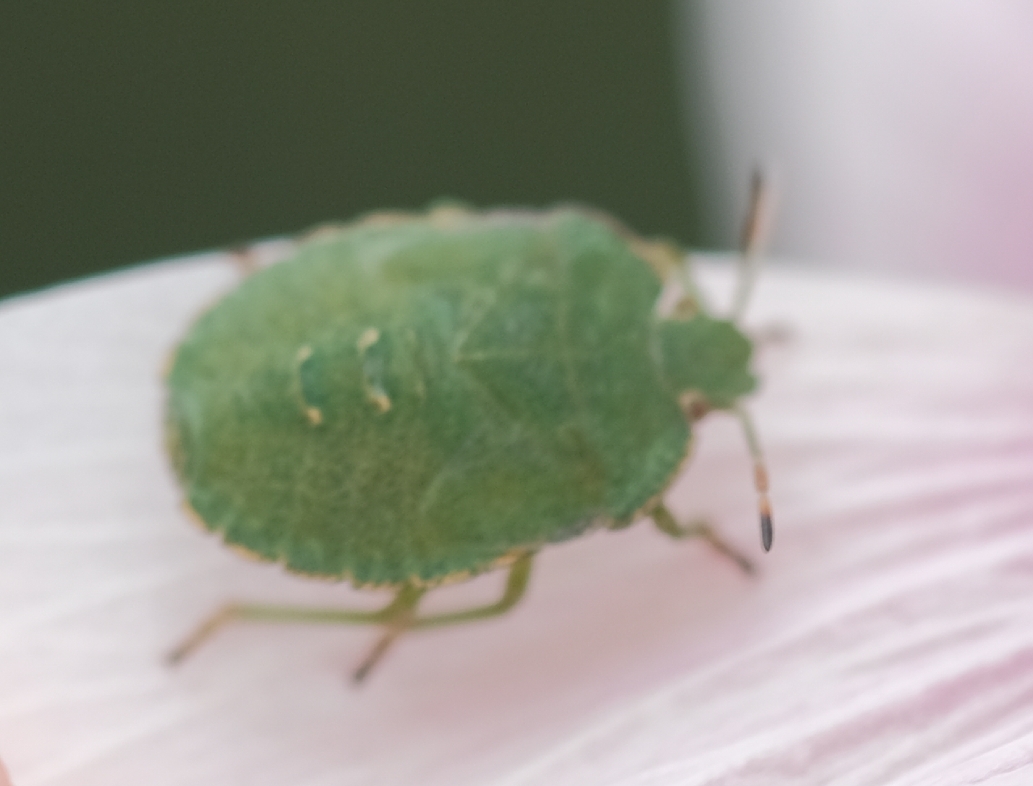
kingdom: Animalia
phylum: Arthropoda
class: Insecta
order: Hemiptera
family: Pentatomidae
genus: Palomena
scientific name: Palomena prasina
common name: Green shieldbug
